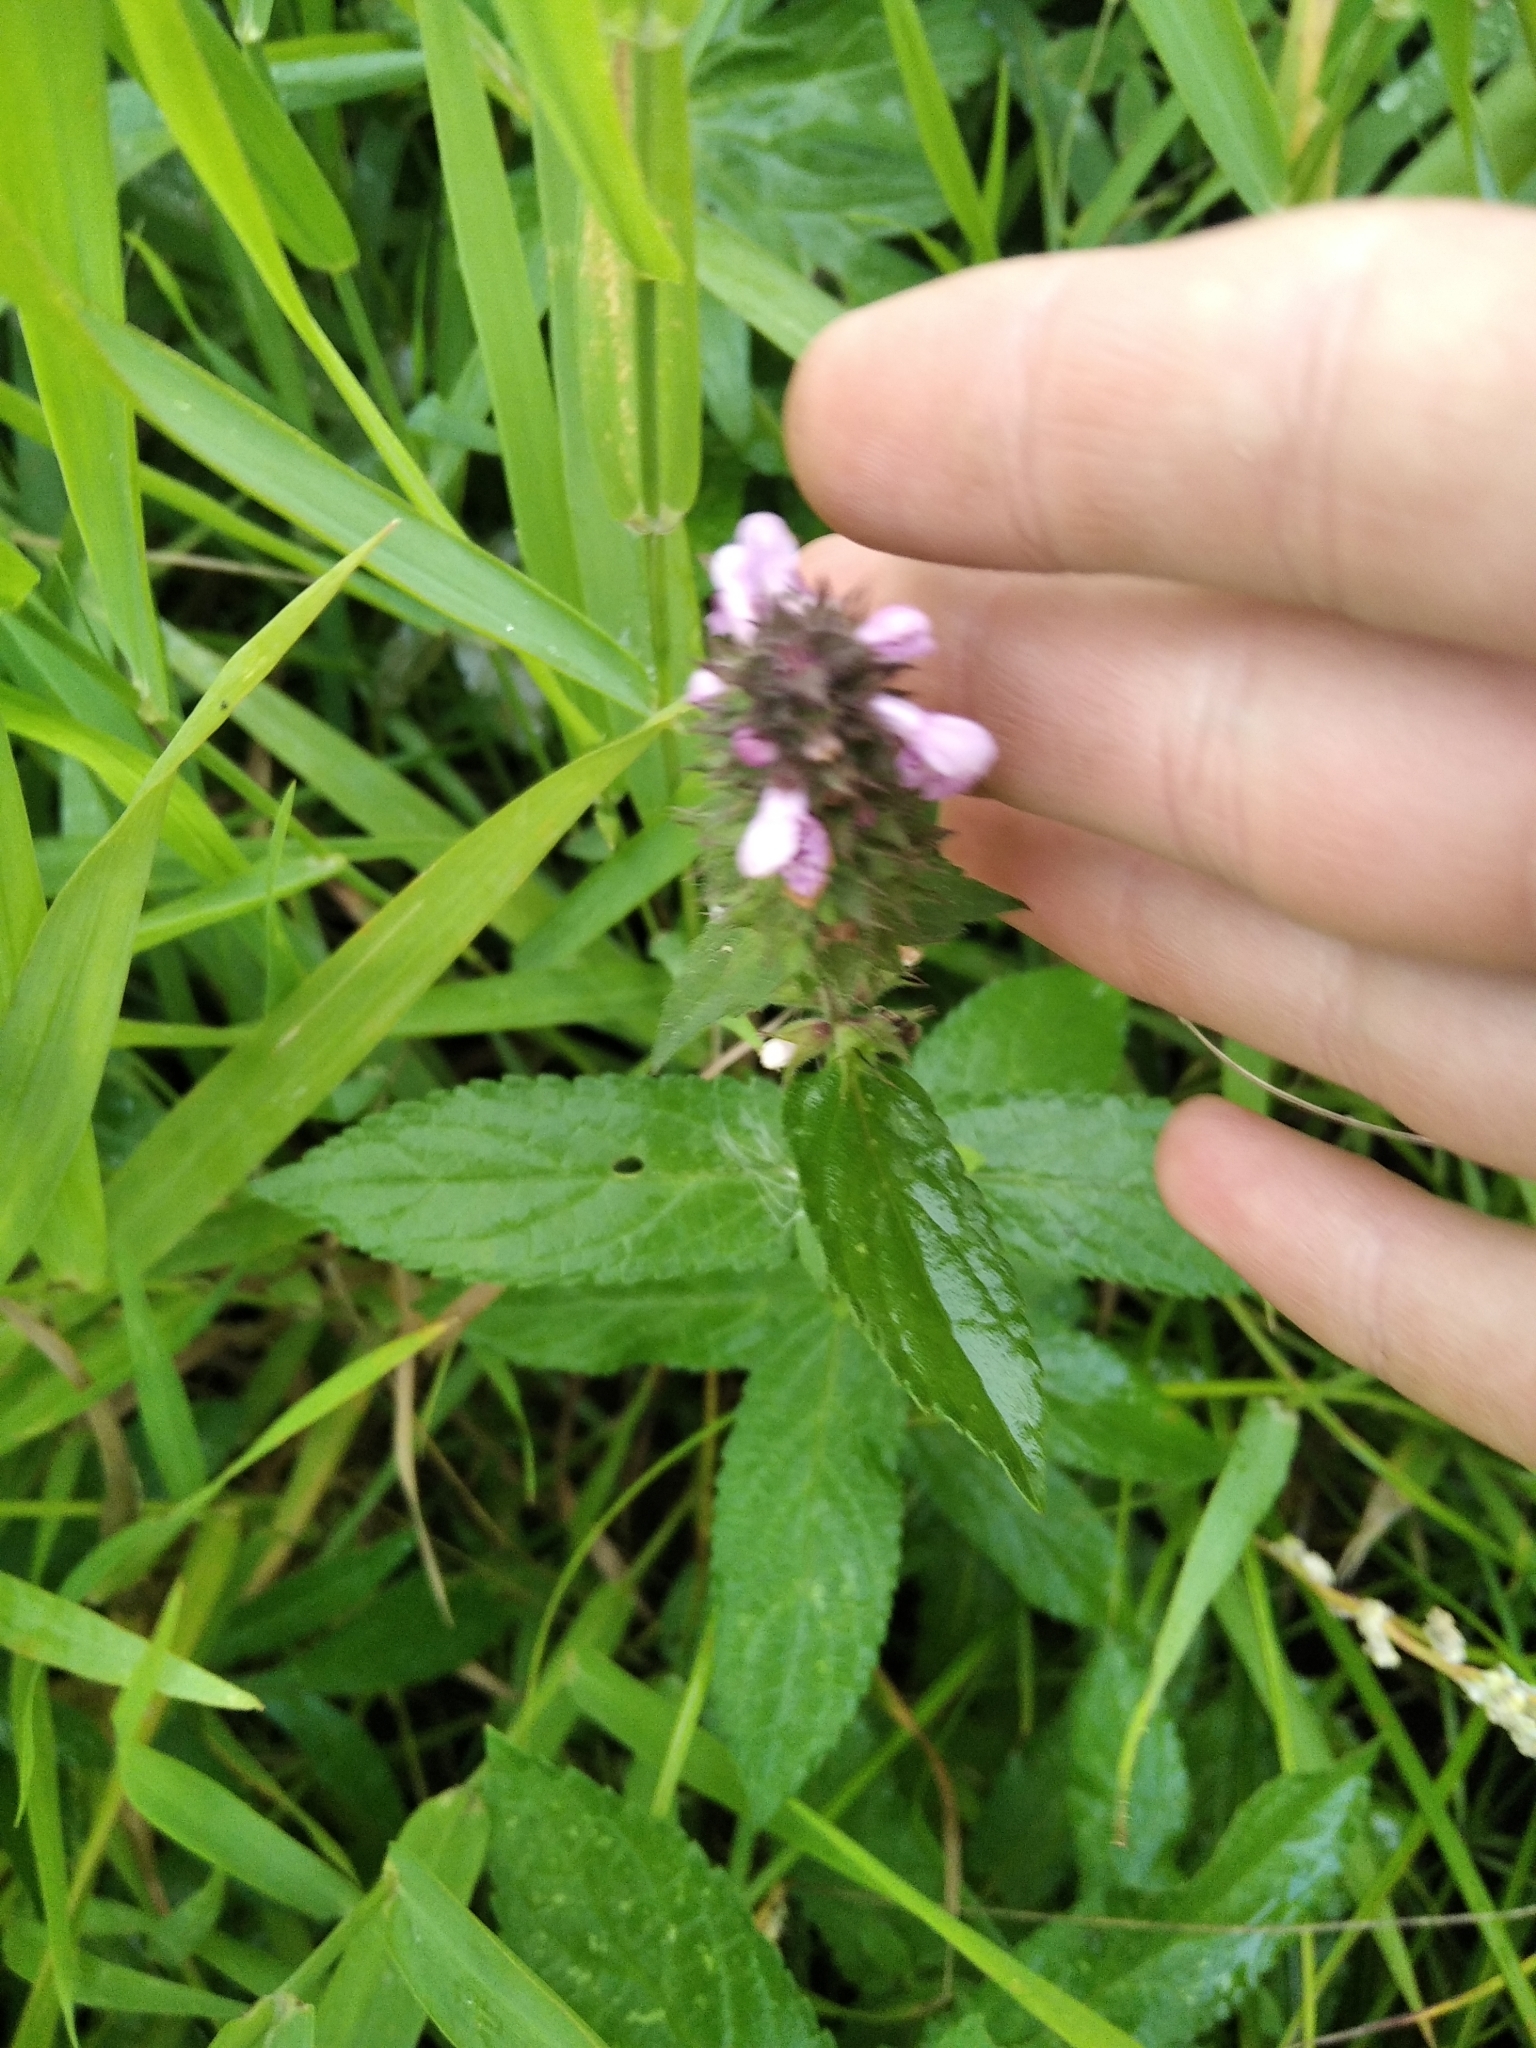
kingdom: Plantae
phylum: Tracheophyta
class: Magnoliopsida
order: Lamiales
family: Lamiaceae
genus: Stachys
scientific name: Stachys palustris
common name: Marsh woundwort
